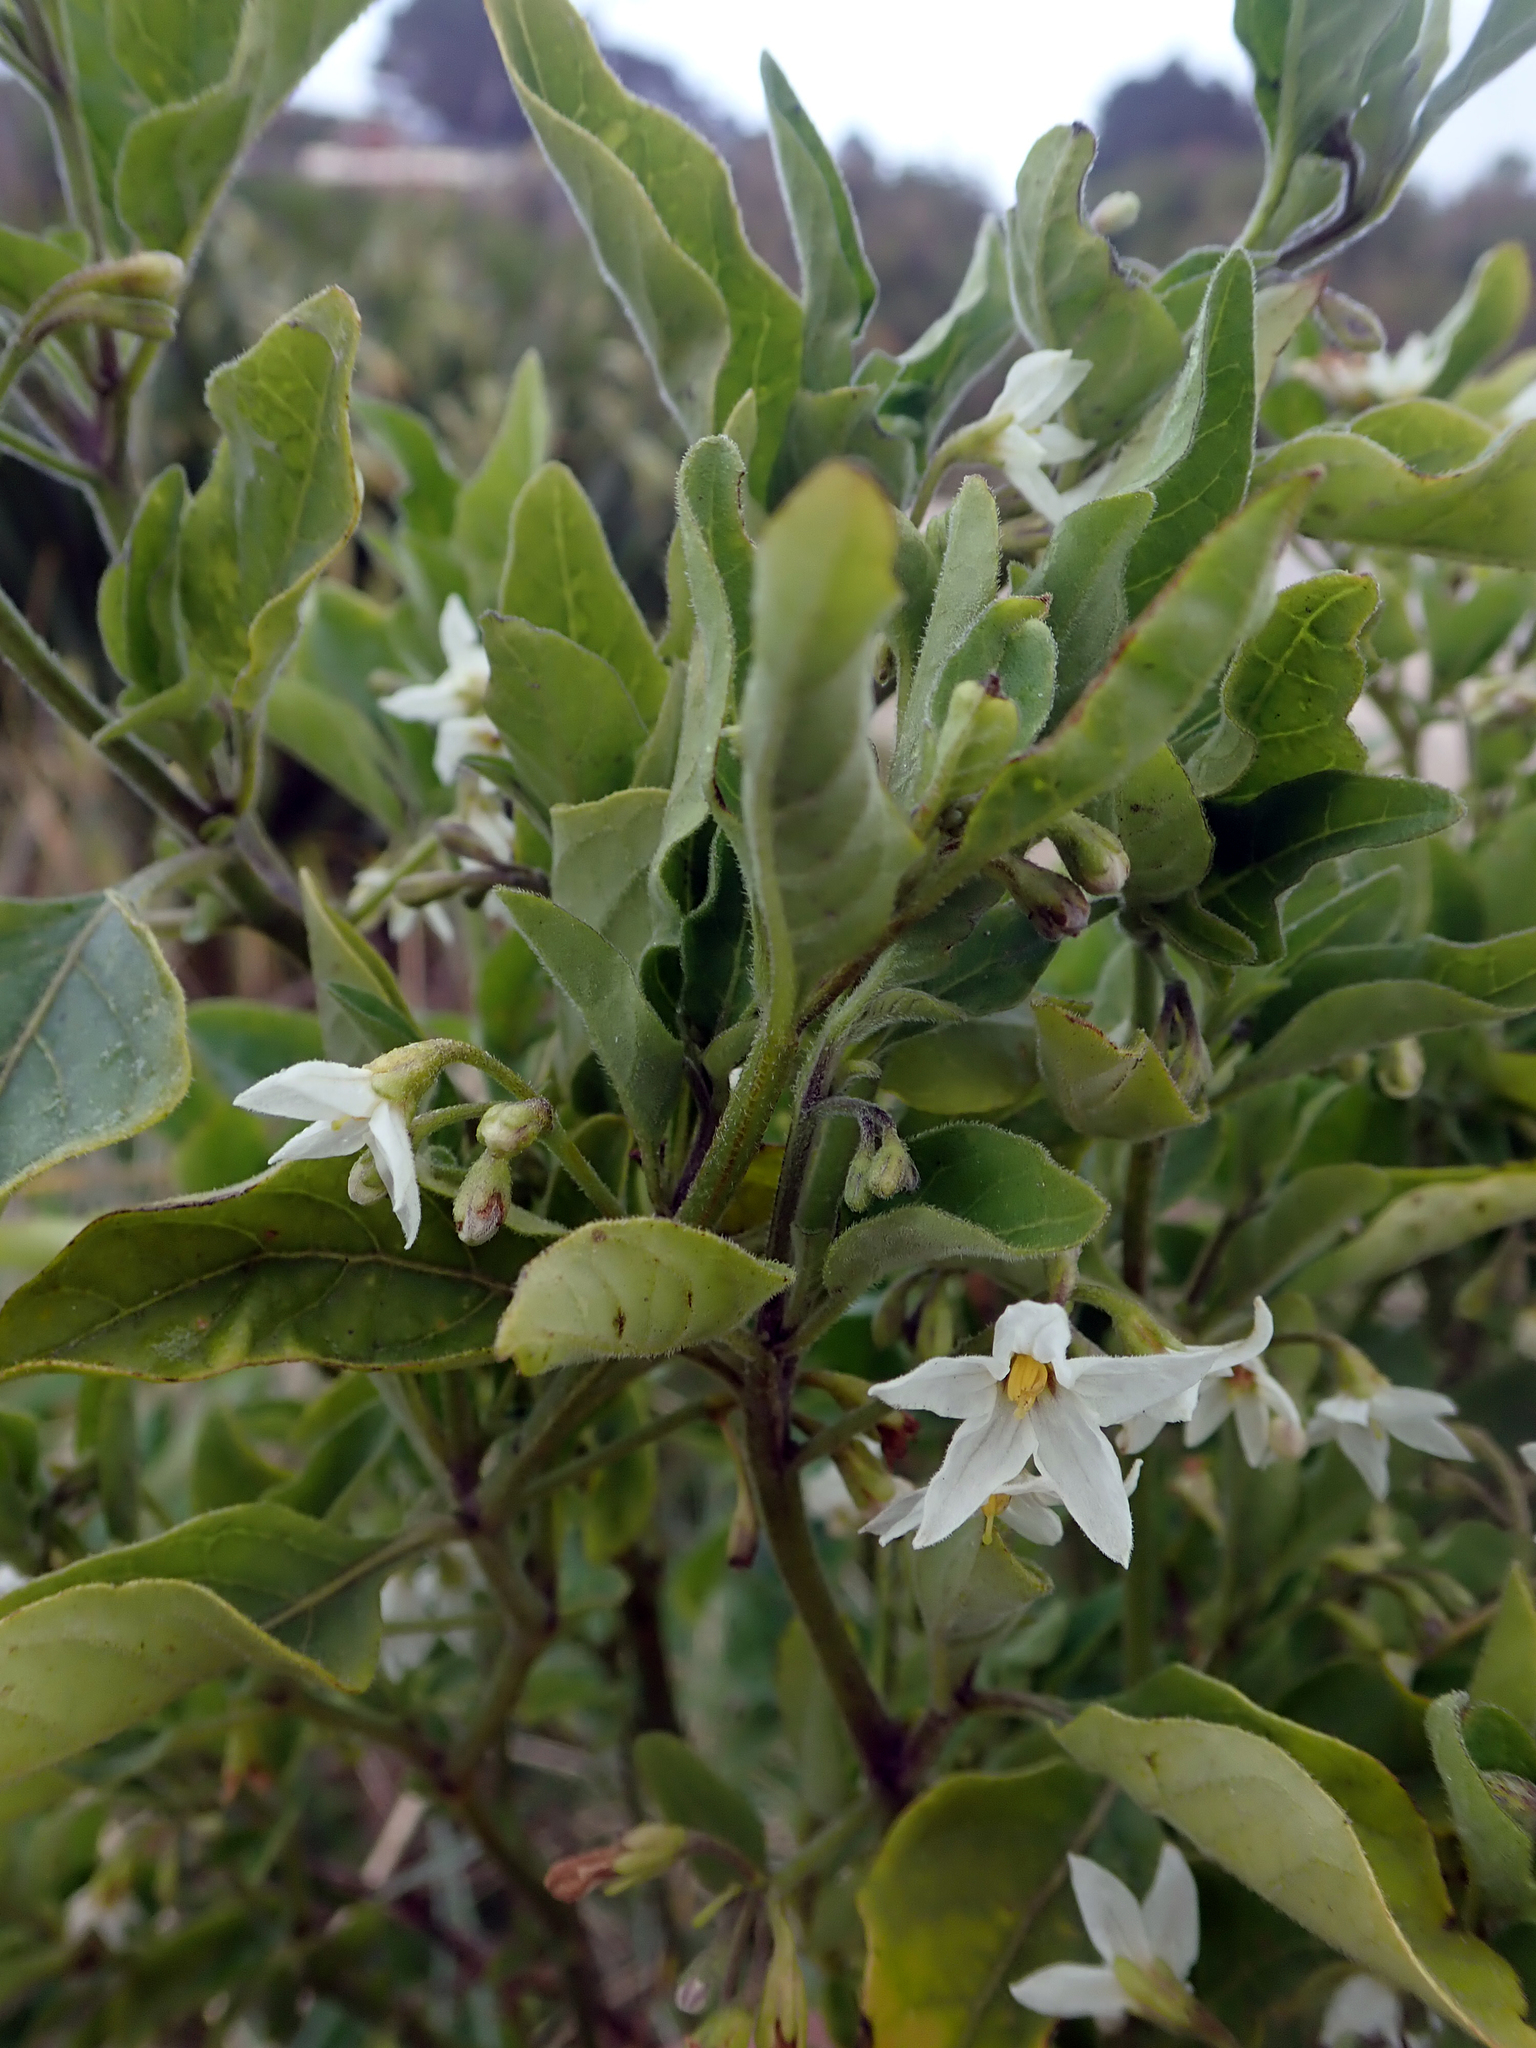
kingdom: Plantae
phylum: Tracheophyta
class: Magnoliopsida
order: Solanales
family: Solanaceae
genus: Solanum
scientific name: Solanum chenopodioides
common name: Tall nightshade
